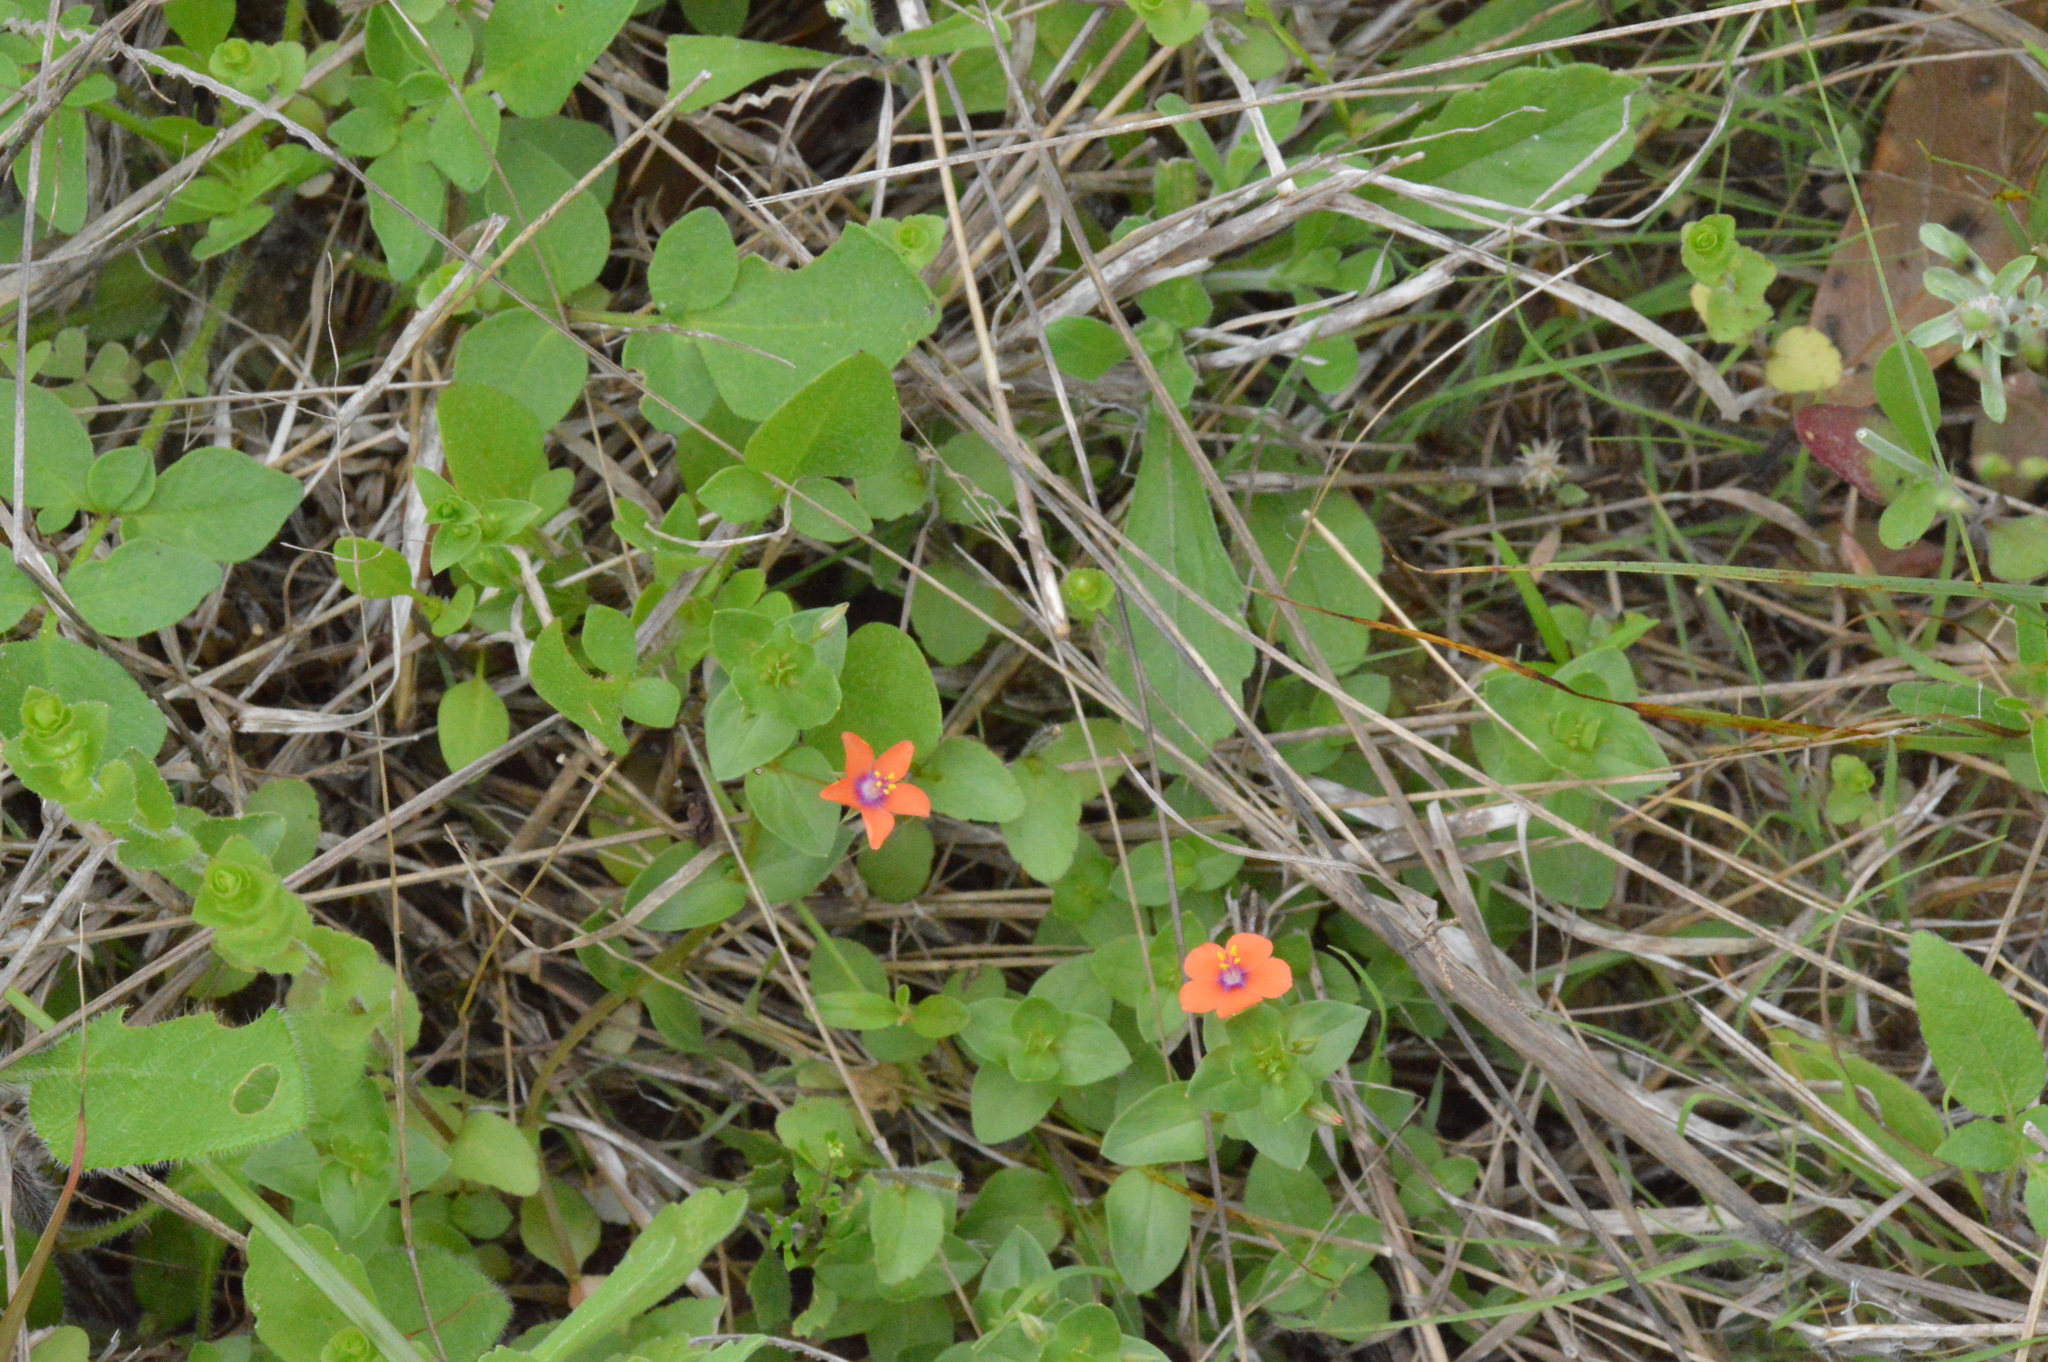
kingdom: Plantae
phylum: Tracheophyta
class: Magnoliopsida
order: Ericales
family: Primulaceae
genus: Lysimachia
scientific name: Lysimachia arvensis
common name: Scarlet pimpernel
